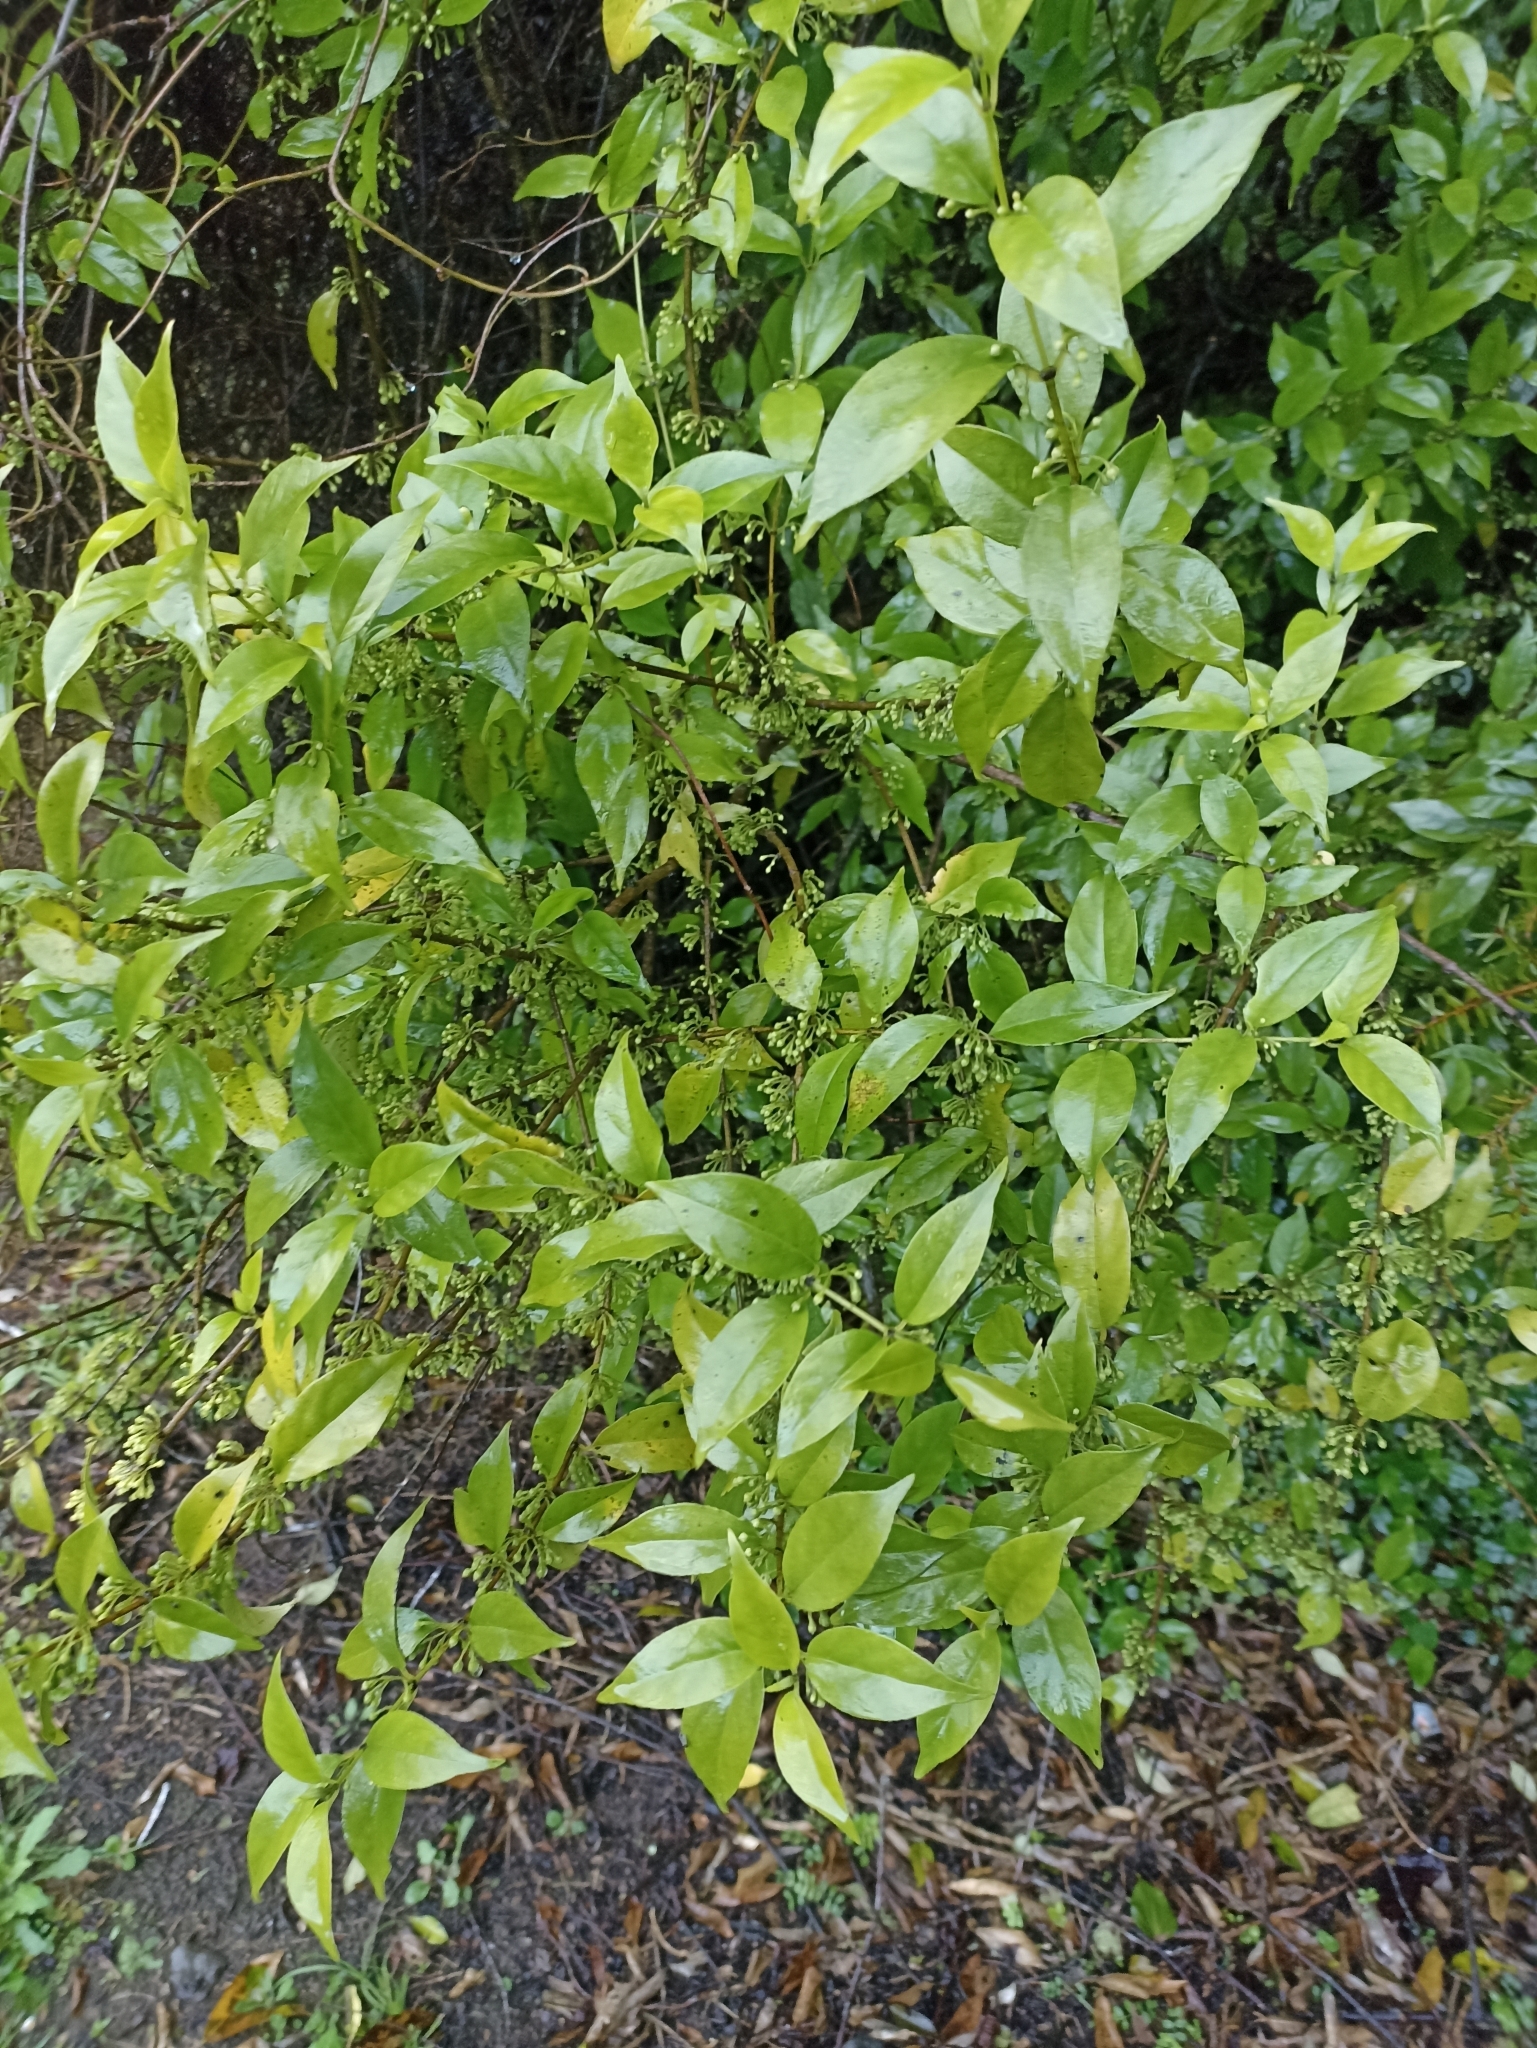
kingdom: Plantae
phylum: Tracheophyta
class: Magnoliopsida
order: Gentianales
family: Loganiaceae
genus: Geniostoma
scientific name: Geniostoma ligustrifolium
